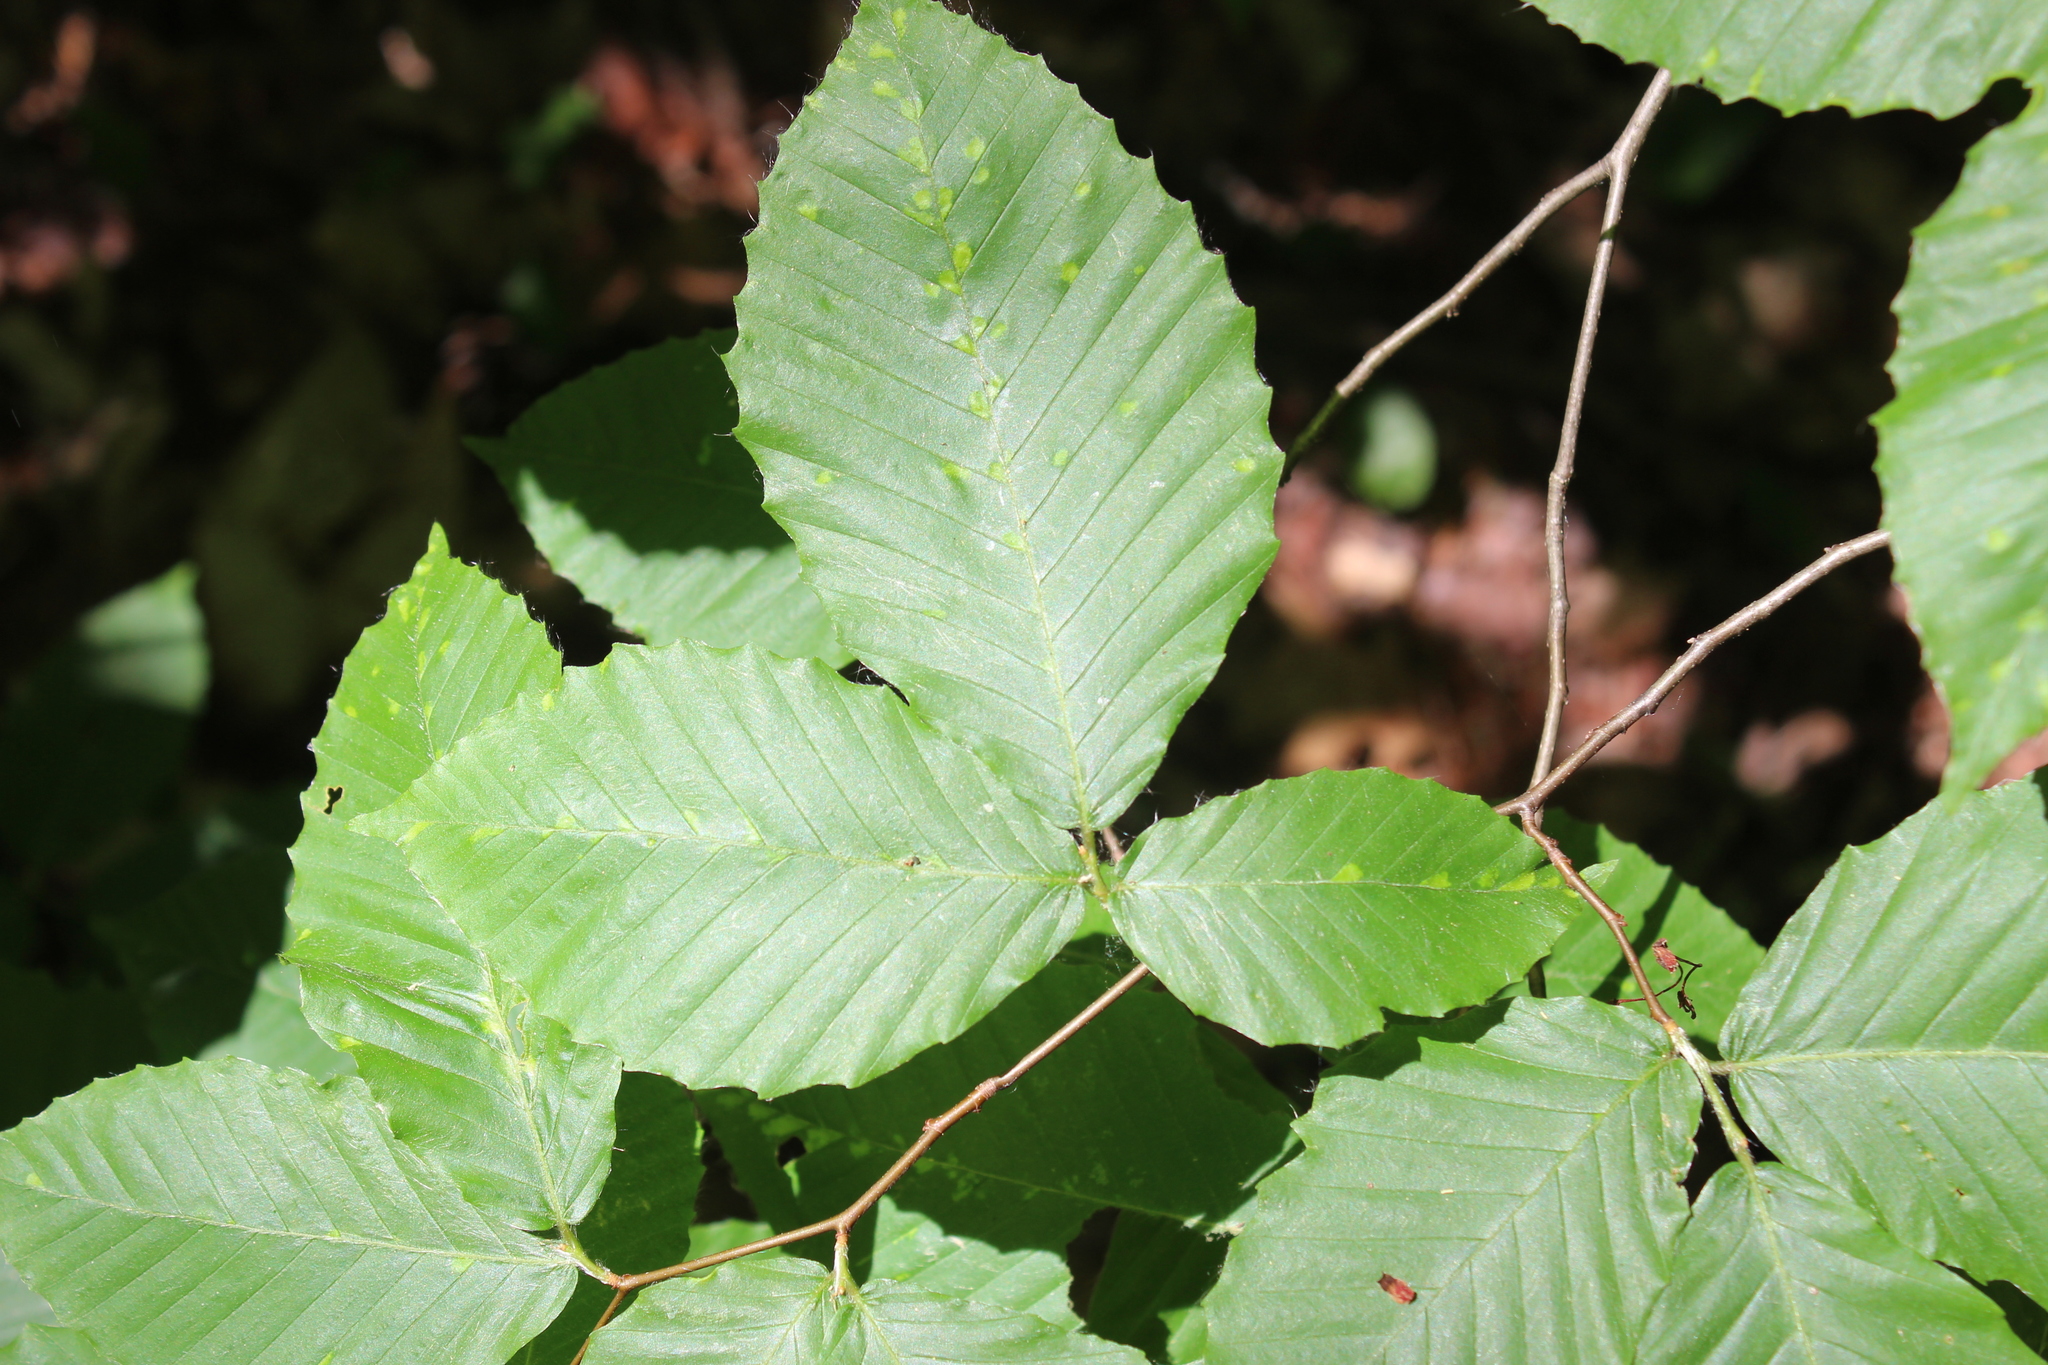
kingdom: Plantae
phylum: Tracheophyta
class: Magnoliopsida
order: Fagales
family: Fagaceae
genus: Fagus
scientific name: Fagus grandifolia
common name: American beech
